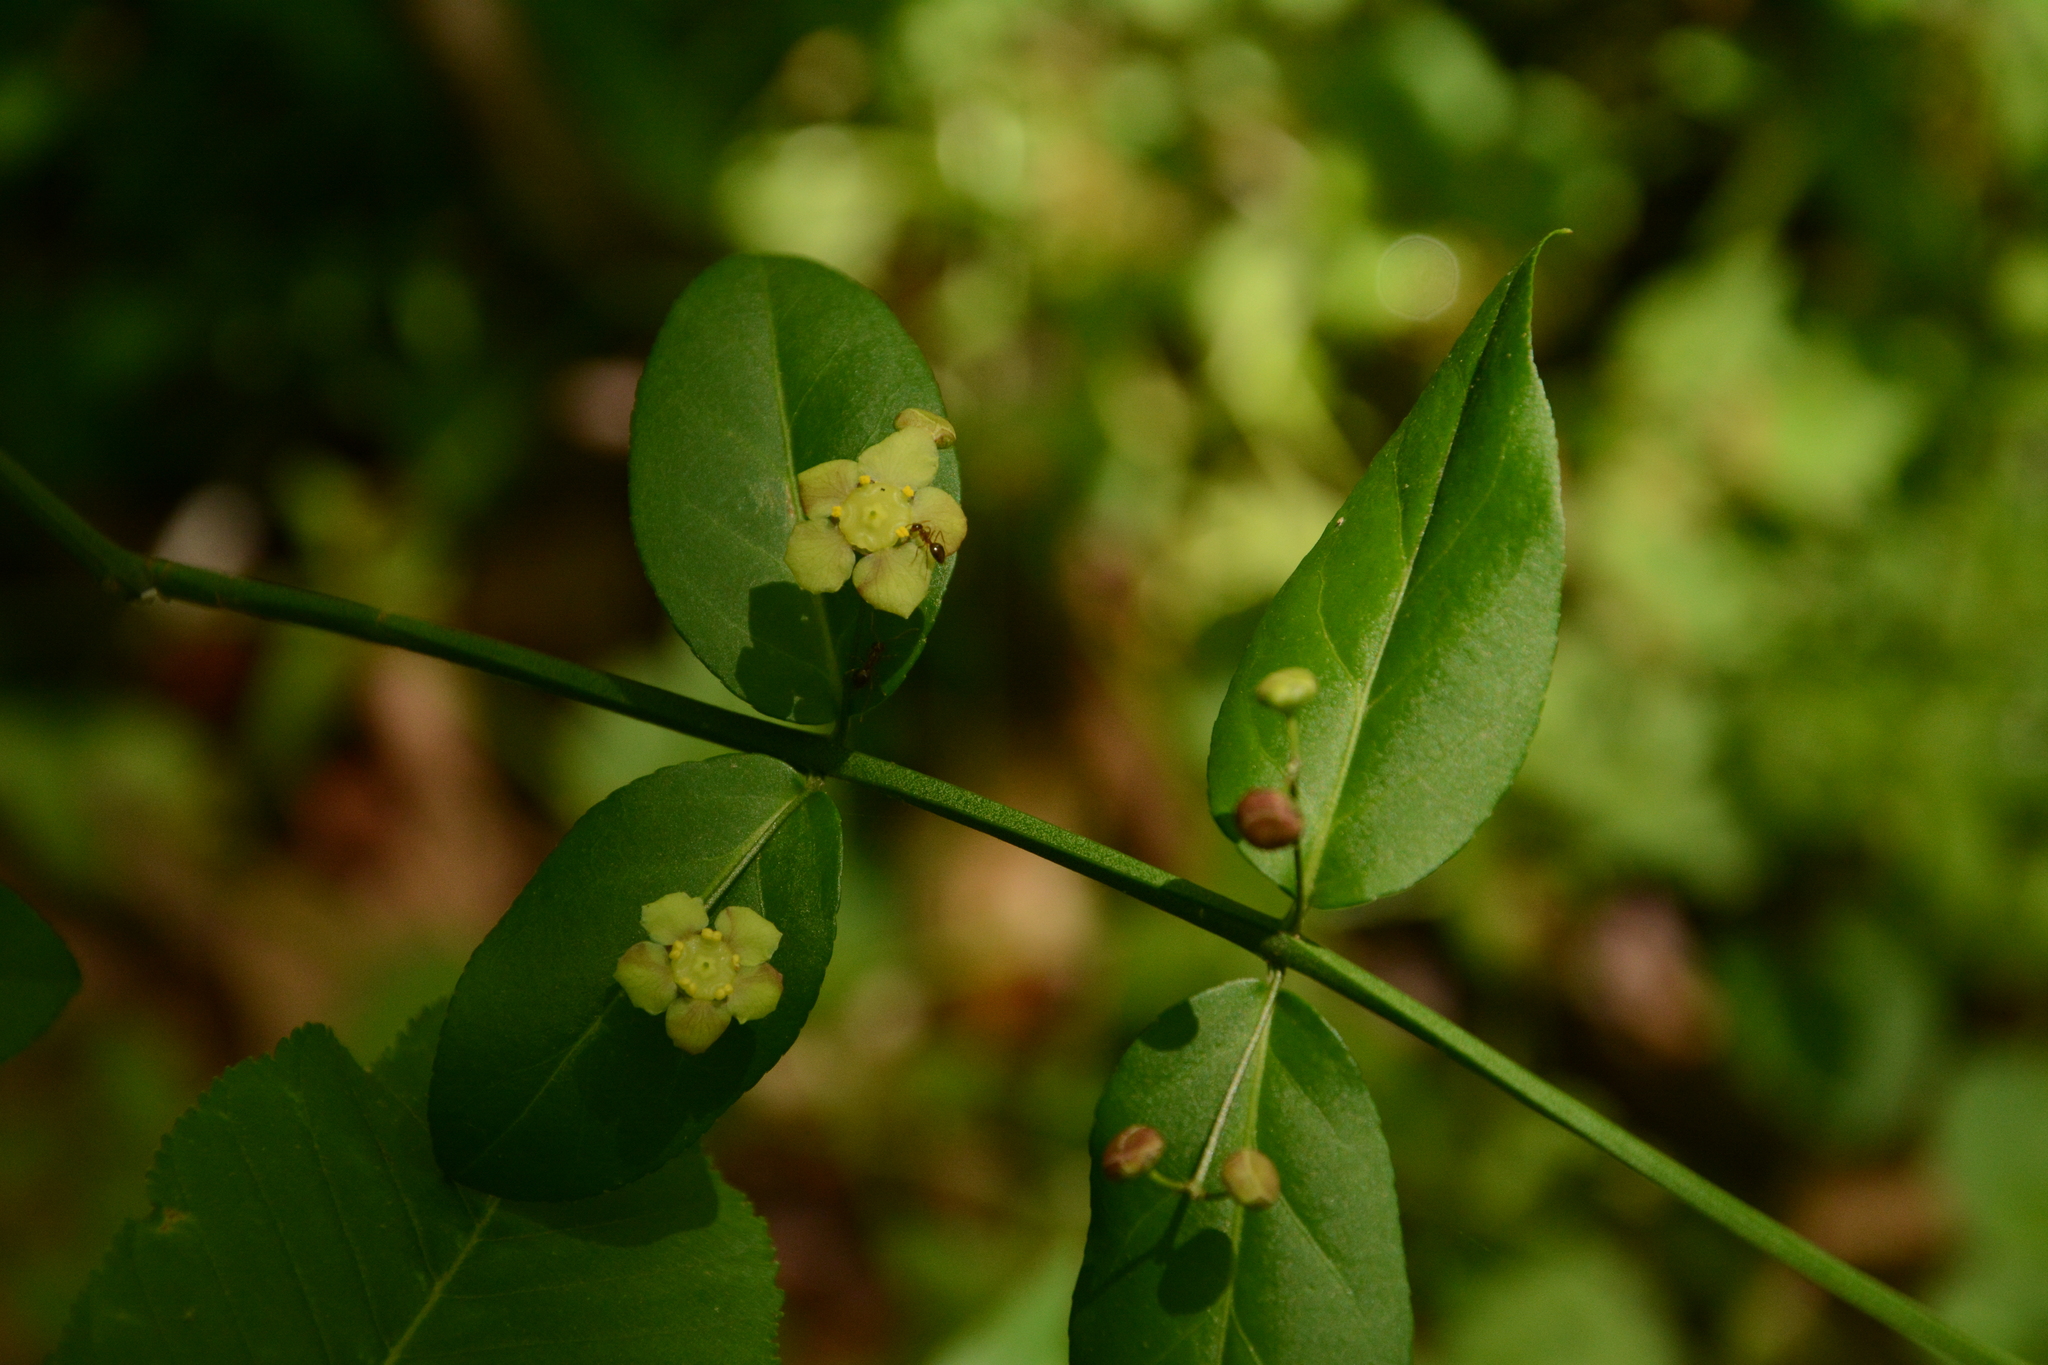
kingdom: Plantae
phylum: Tracheophyta
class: Magnoliopsida
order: Celastrales
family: Celastraceae
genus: Euonymus
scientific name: Euonymus americanus
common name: Bursting-heart
